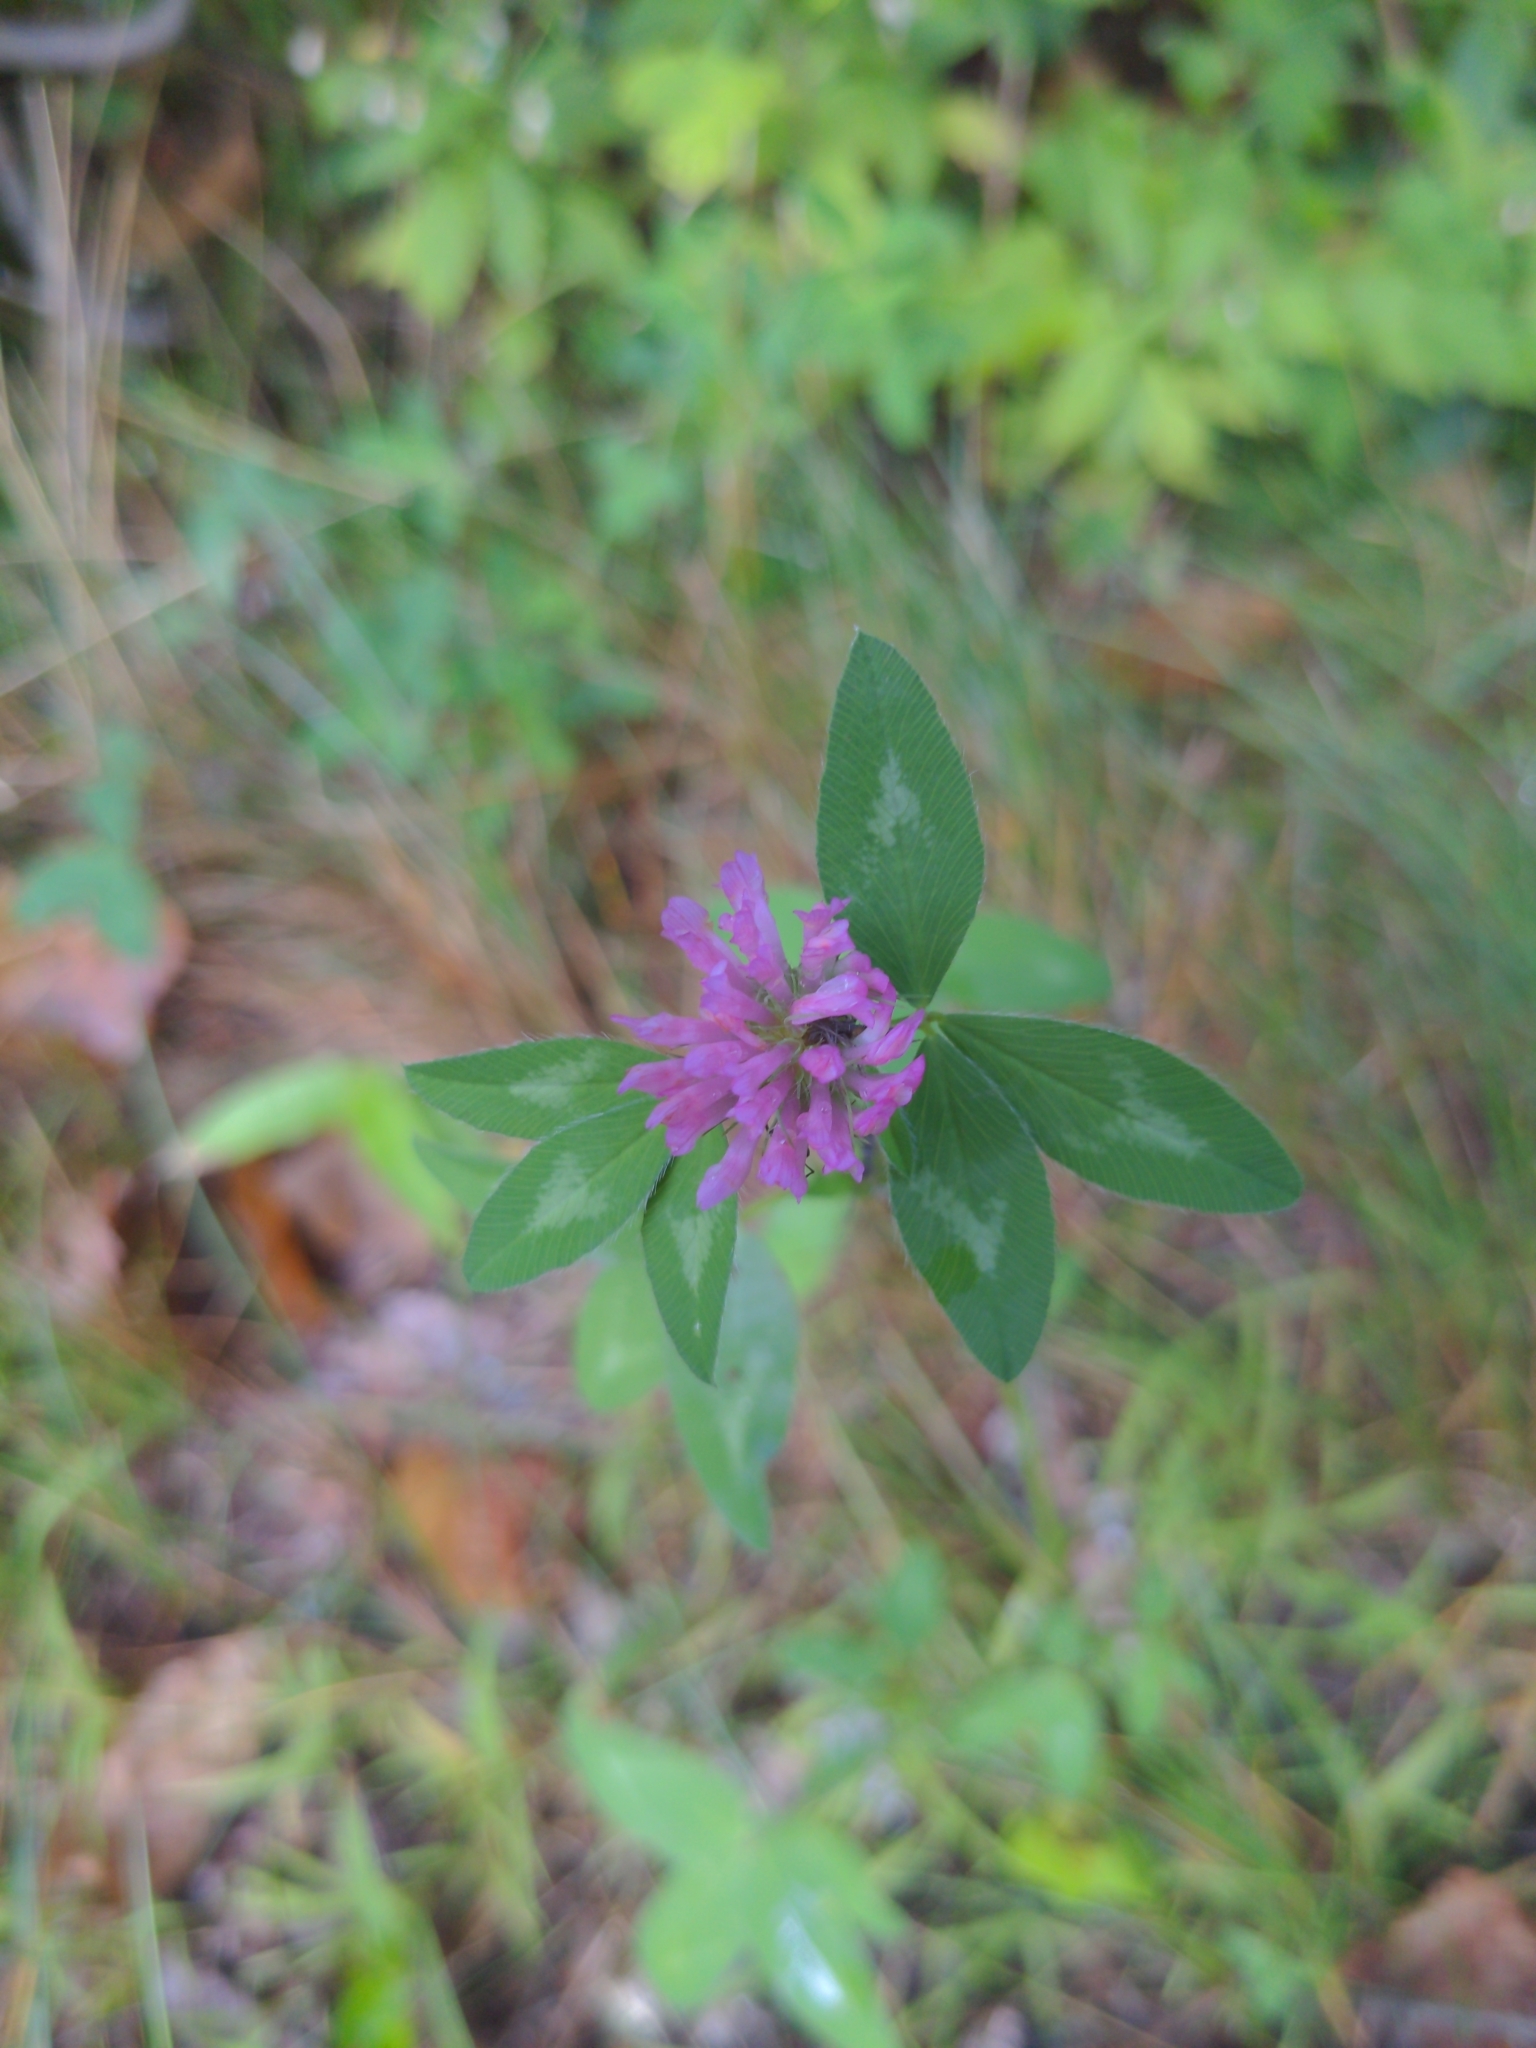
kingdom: Plantae
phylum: Tracheophyta
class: Magnoliopsida
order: Fabales
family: Fabaceae
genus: Trifolium
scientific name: Trifolium pratense
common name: Red clover
